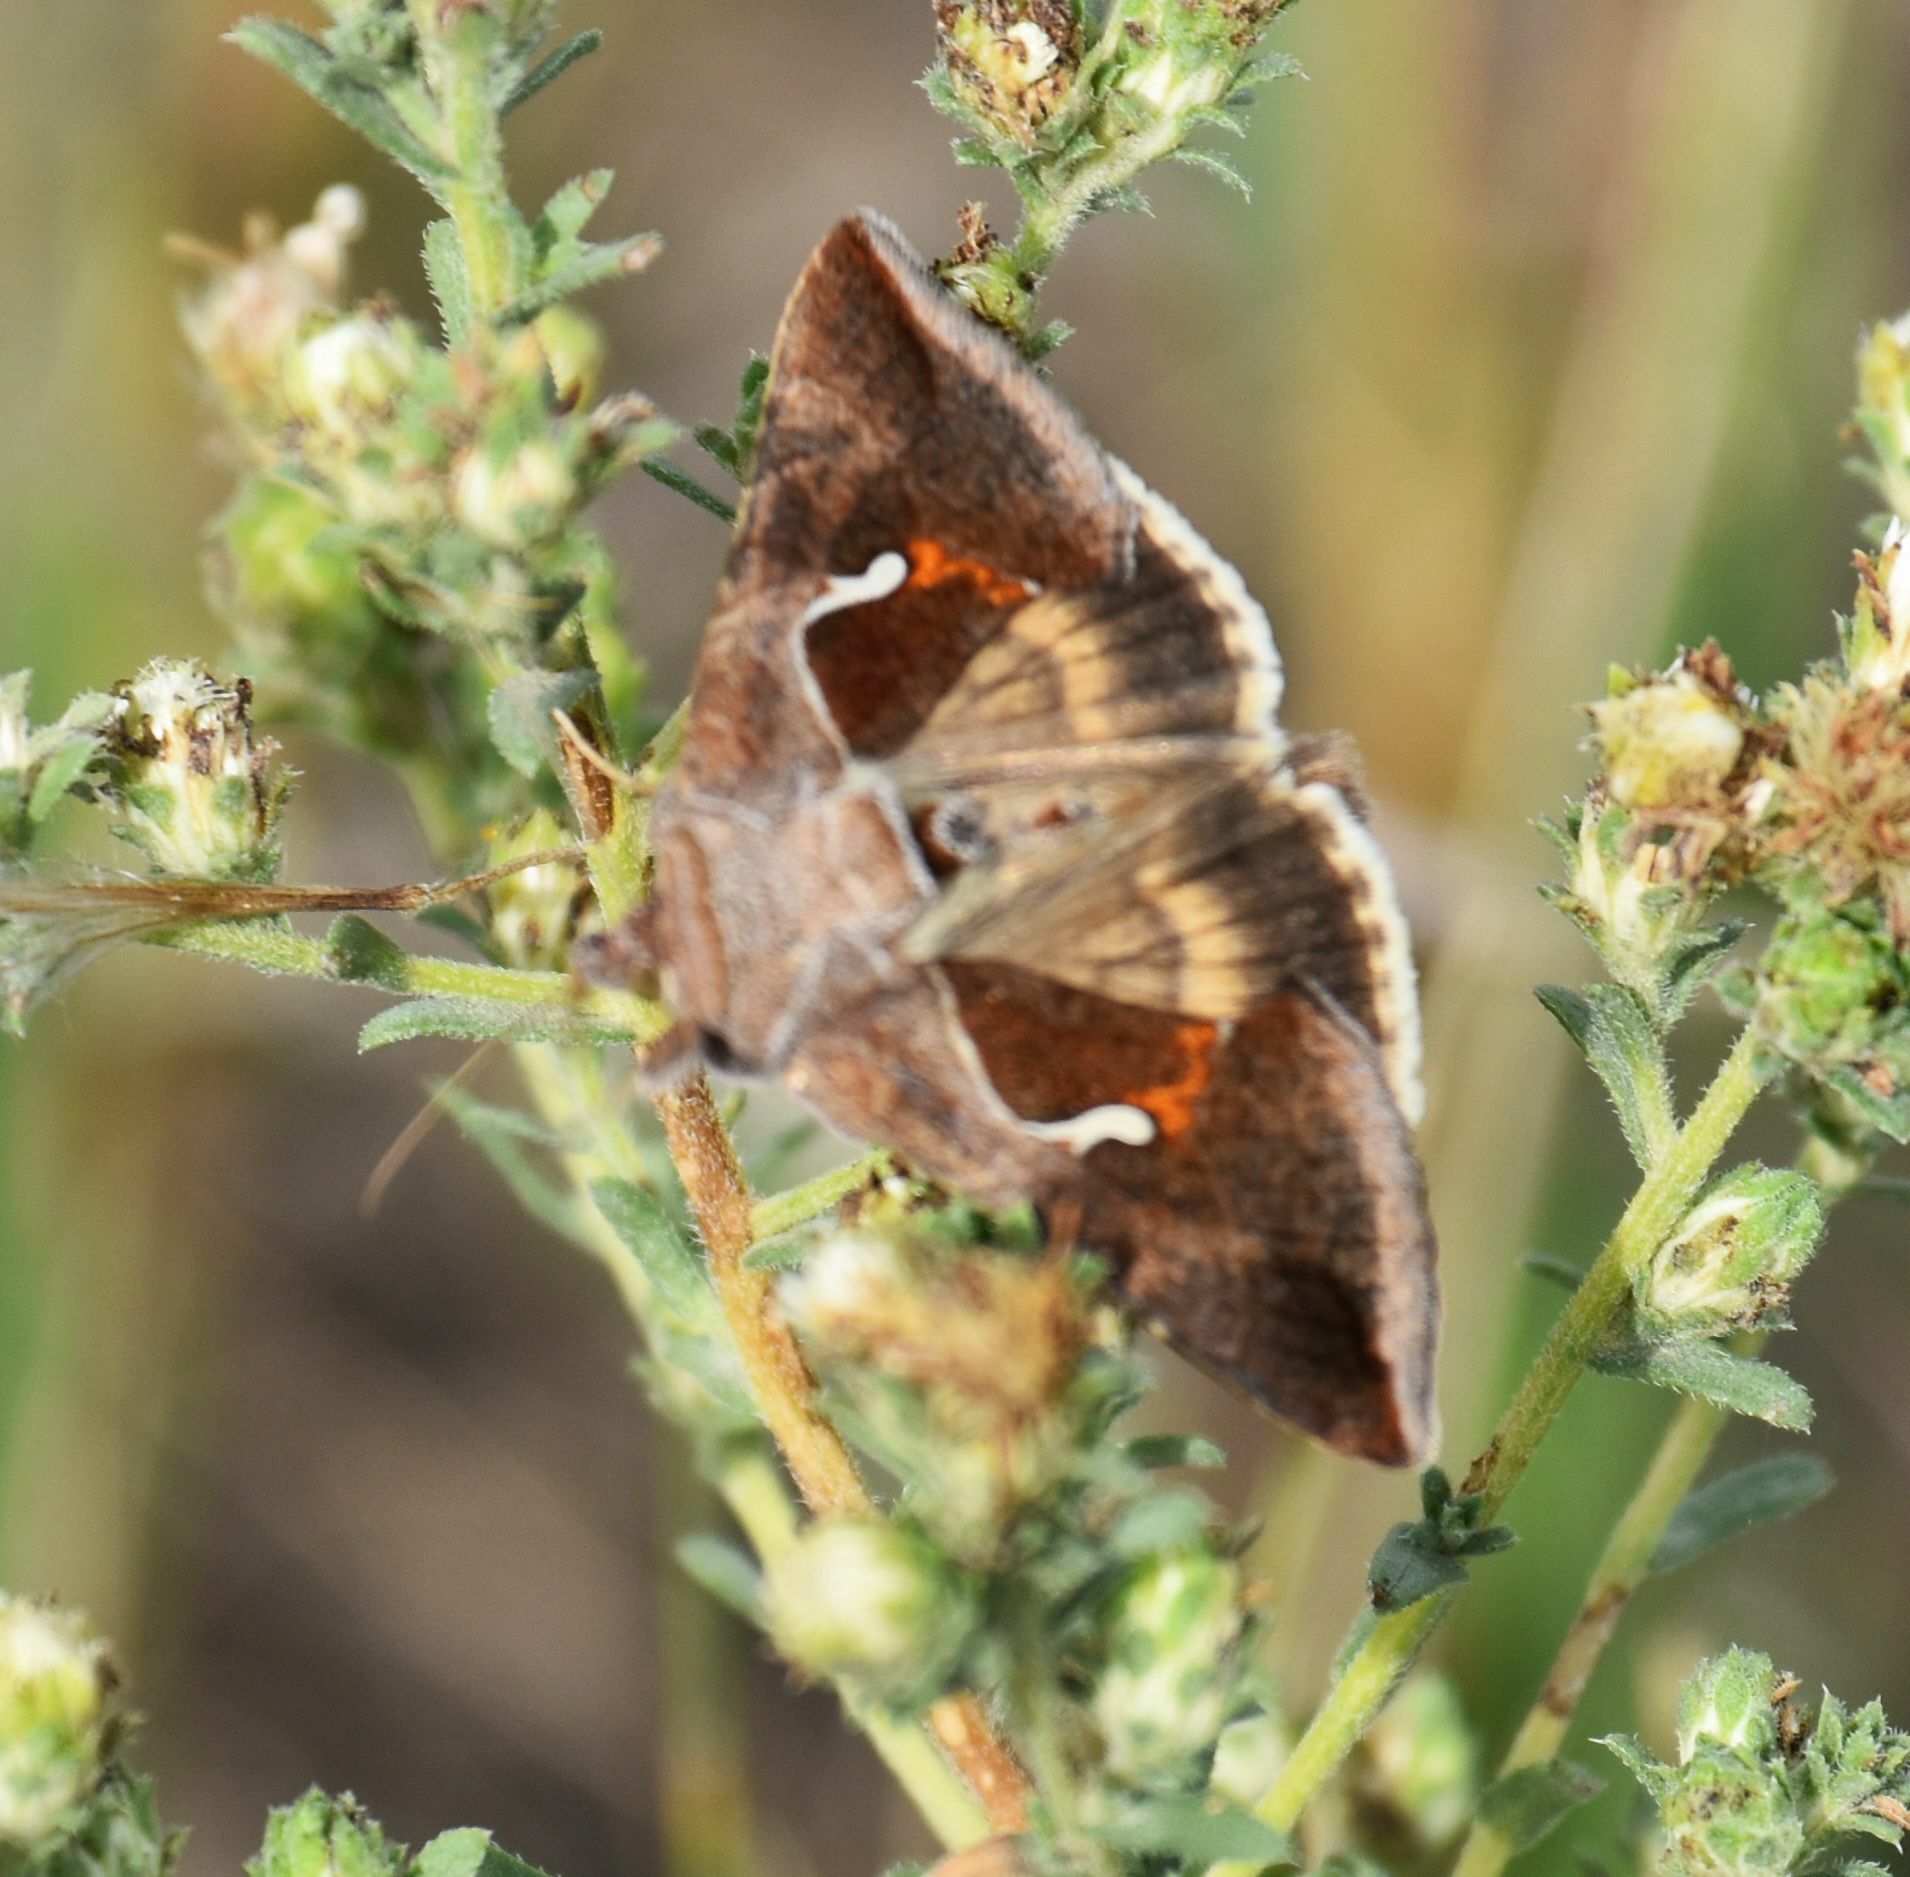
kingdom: Animalia
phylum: Arthropoda
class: Insecta
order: Lepidoptera
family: Noctuidae
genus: Anagrapha
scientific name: Anagrapha falcifera
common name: Celery looper
